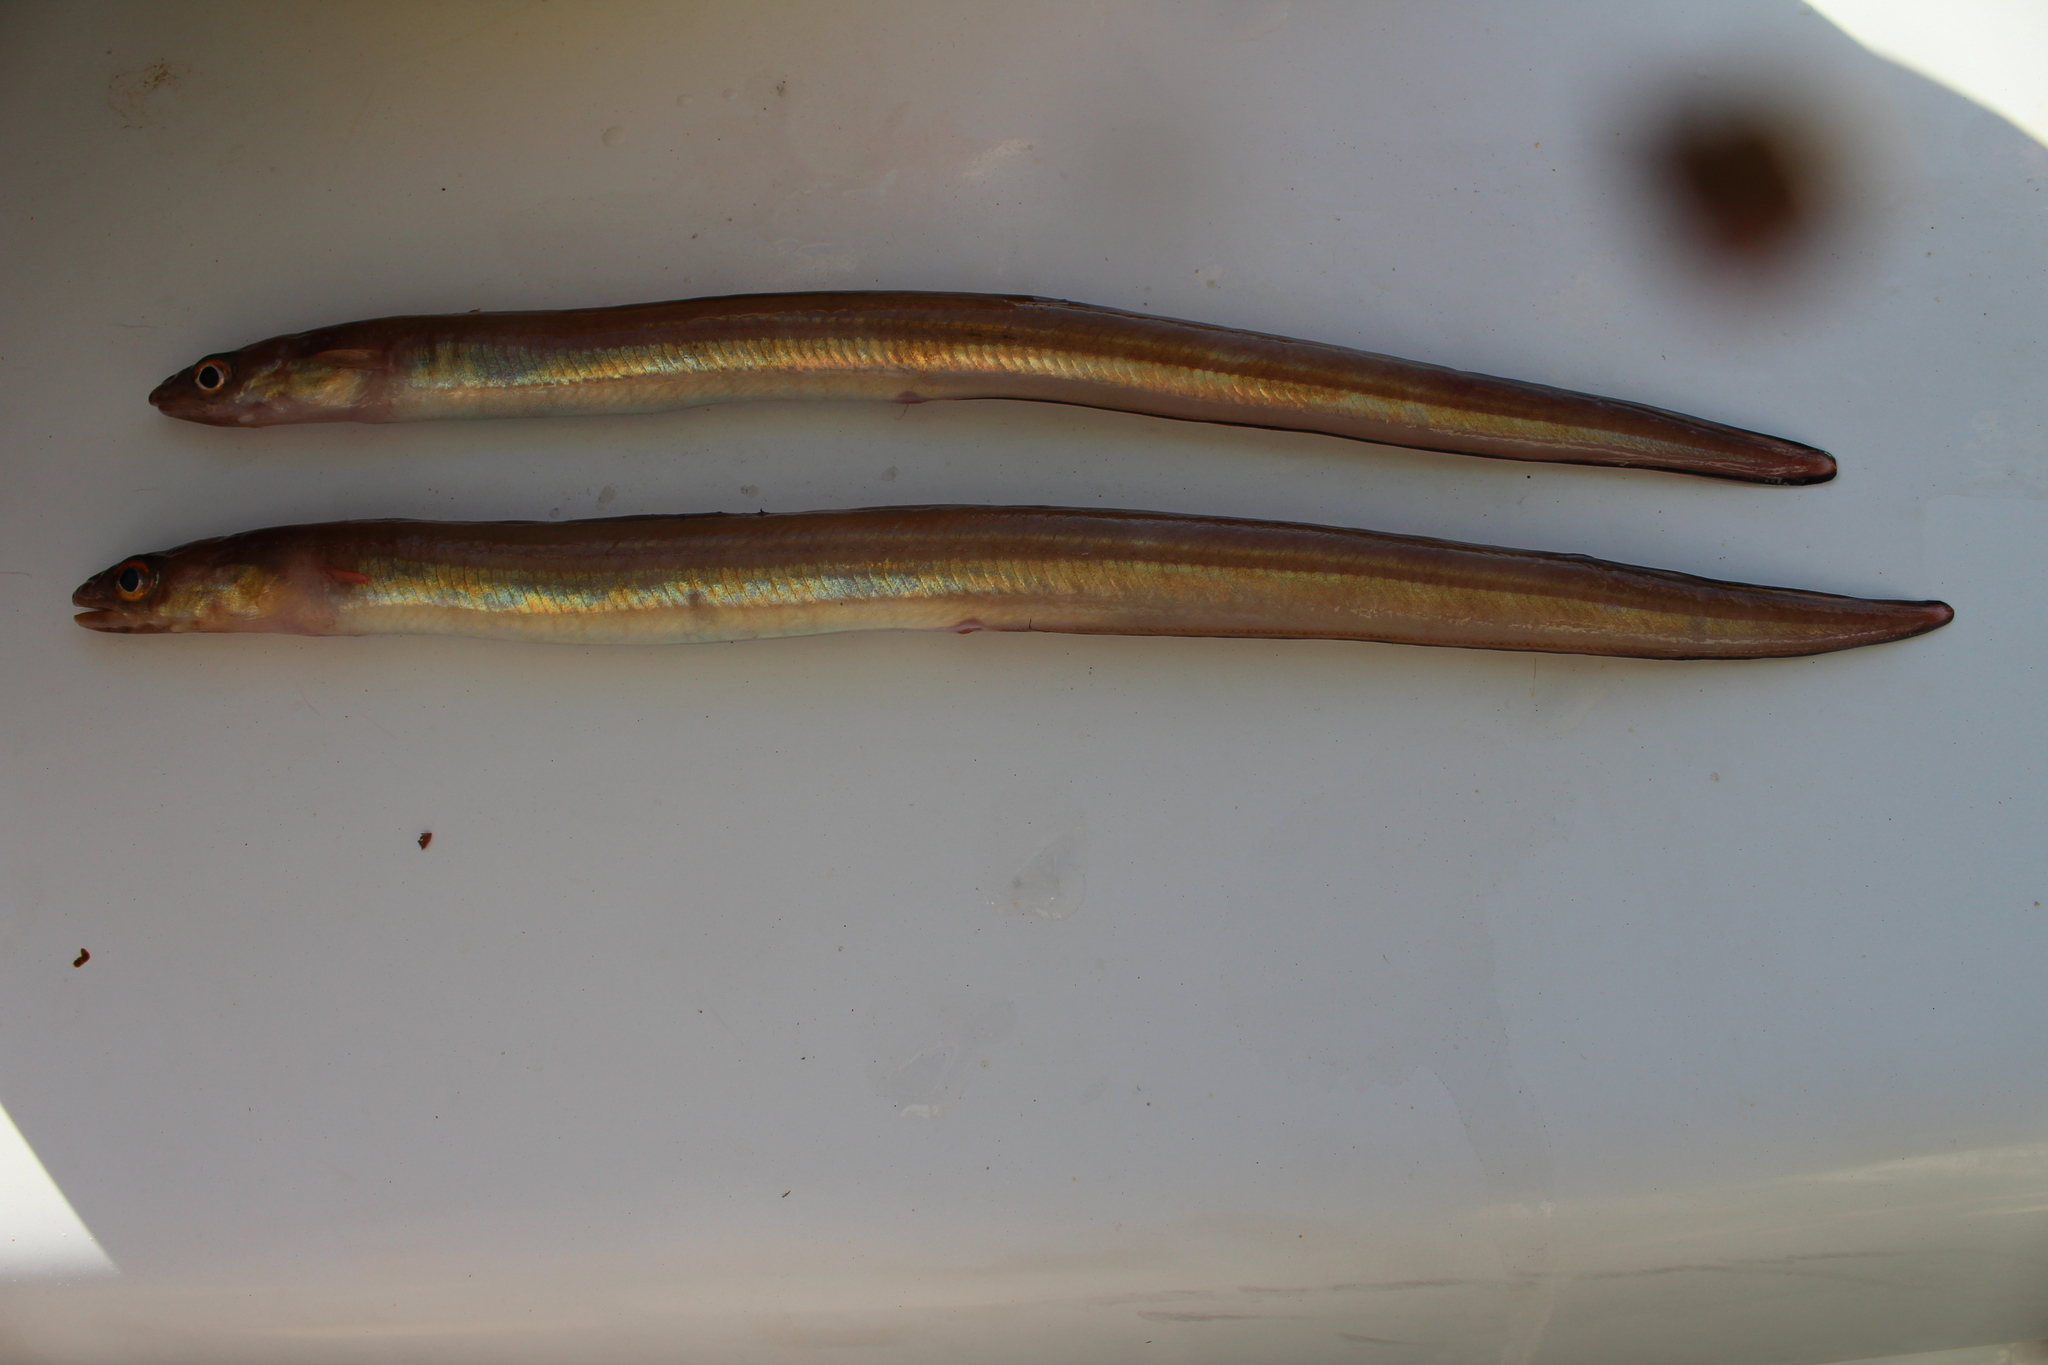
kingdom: Animalia
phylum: Chordata
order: Anguilliformes
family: Congridae
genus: Ariosoma
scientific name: Ariosoma balearicum
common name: Bandtooth conger
